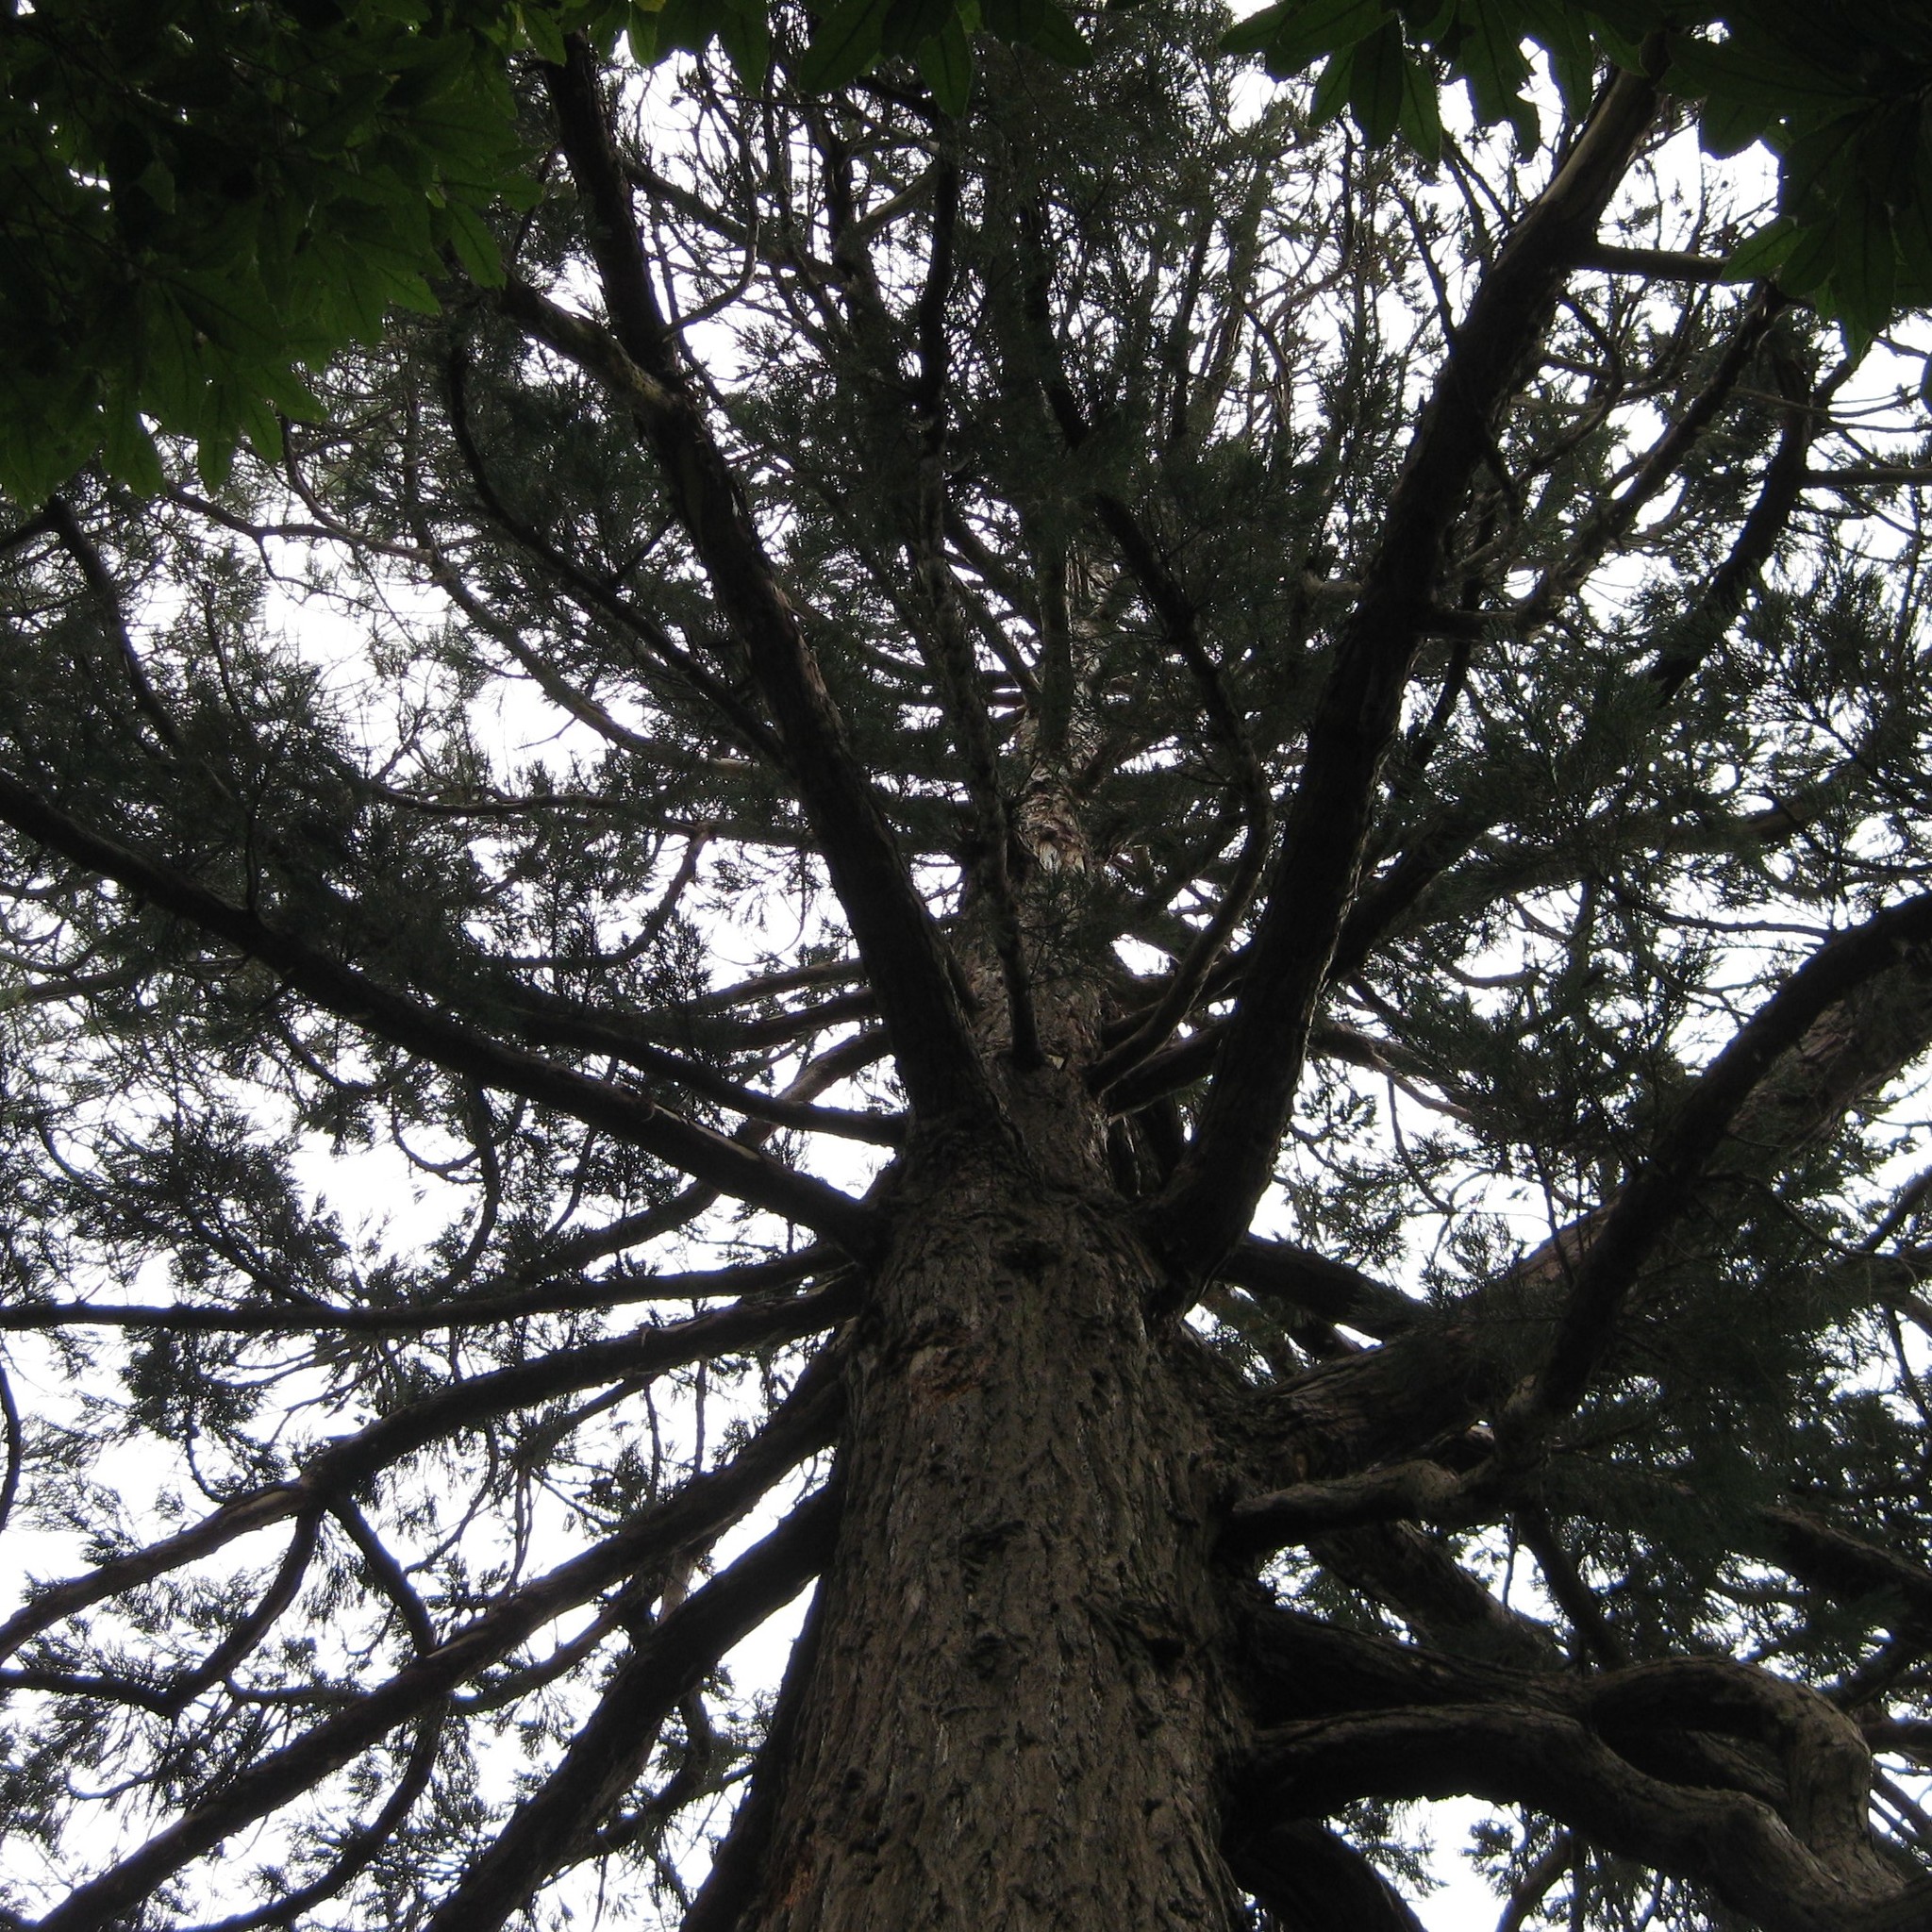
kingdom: Animalia
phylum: Chordata
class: Aves
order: Psittaciformes
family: Psittacidae
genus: Nestor
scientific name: Nestor meridionalis
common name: New zealand kaka
